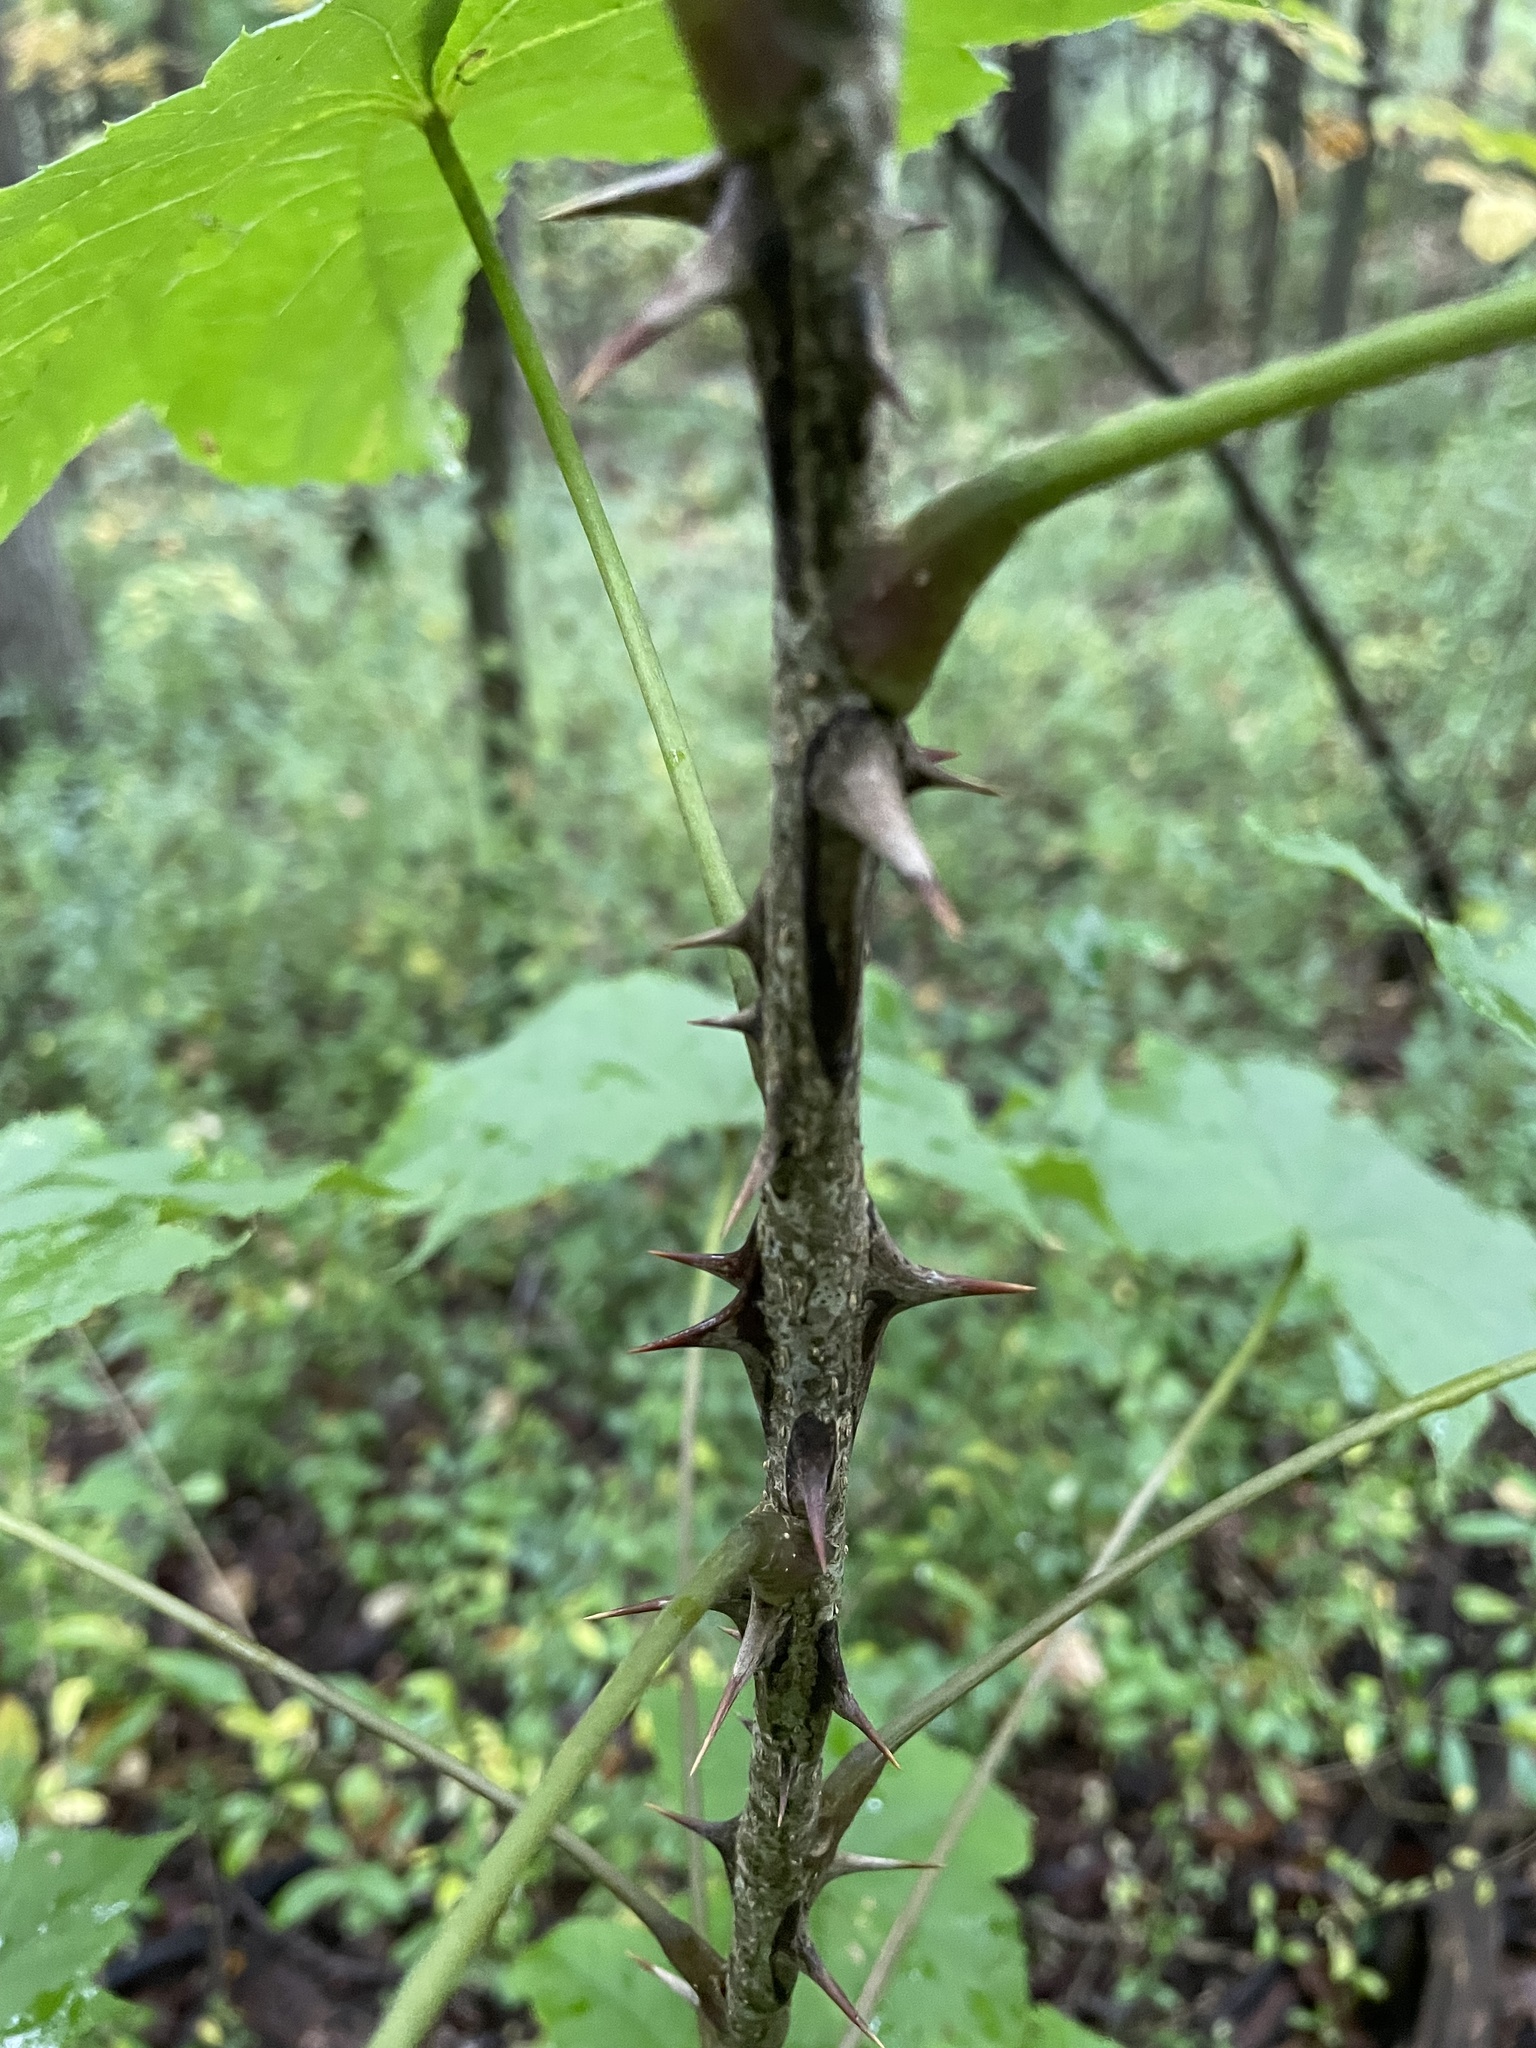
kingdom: Plantae
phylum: Tracheophyta
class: Magnoliopsida
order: Apiales
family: Araliaceae
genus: Kalopanax
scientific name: Kalopanax septemlobus
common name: Castor aralia
